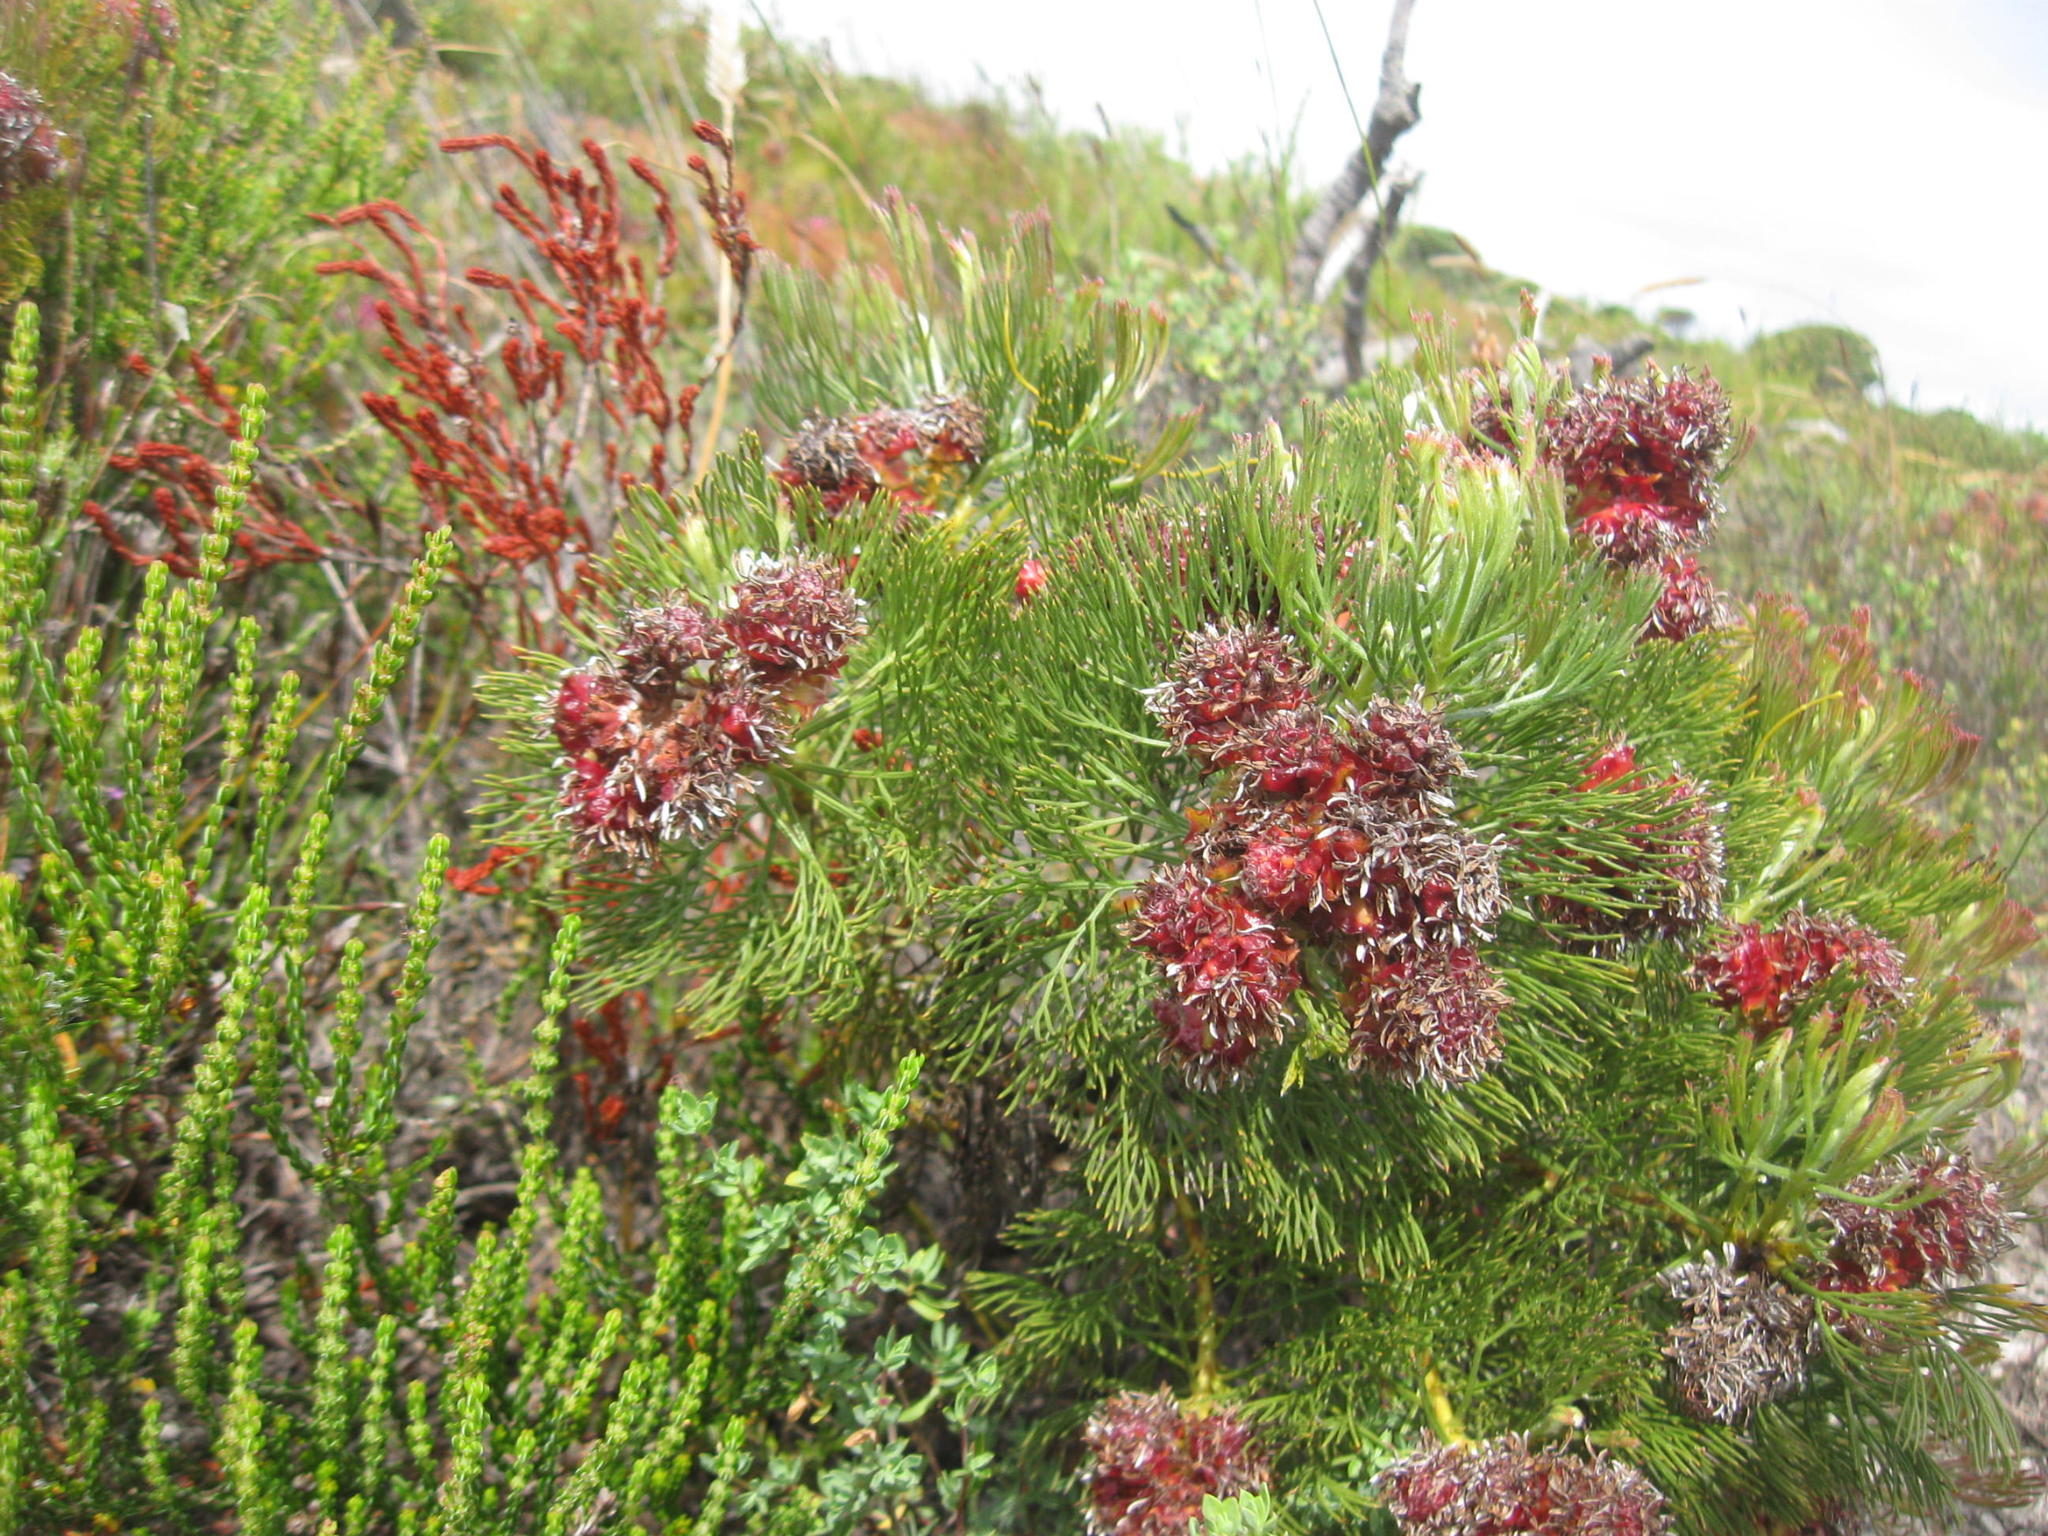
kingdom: Plantae
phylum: Tracheophyta
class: Magnoliopsida
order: Proteales
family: Proteaceae
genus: Serruria
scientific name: Serruria
